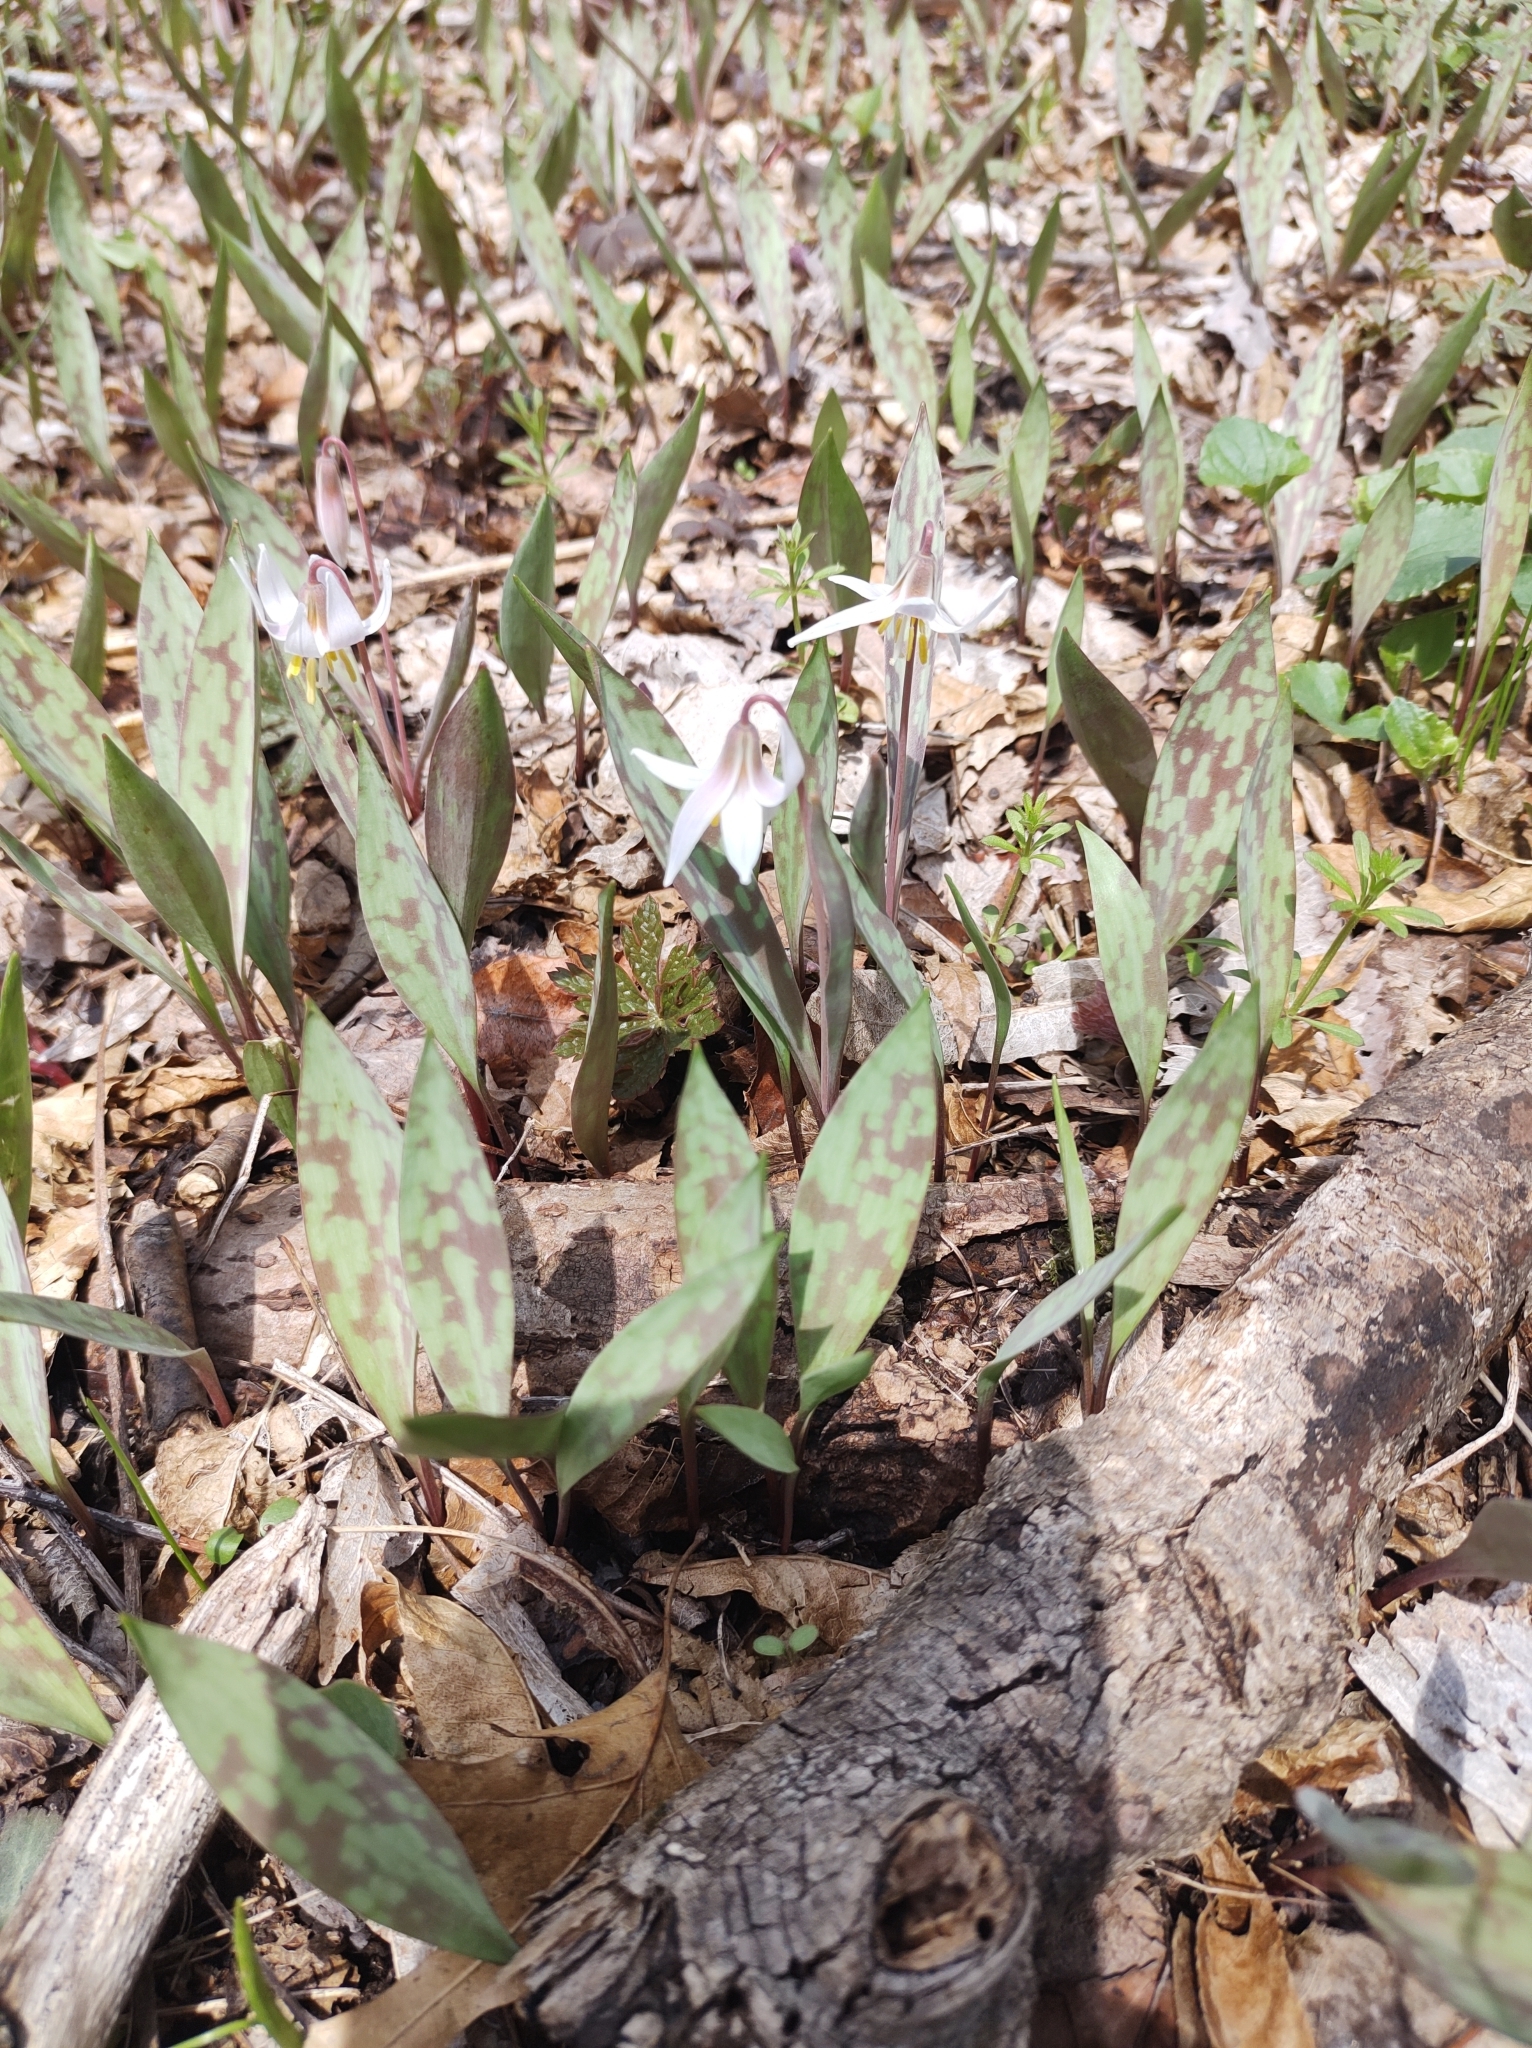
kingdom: Plantae
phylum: Tracheophyta
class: Liliopsida
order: Liliales
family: Liliaceae
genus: Erythronium
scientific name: Erythronium albidum
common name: White trout-lily
